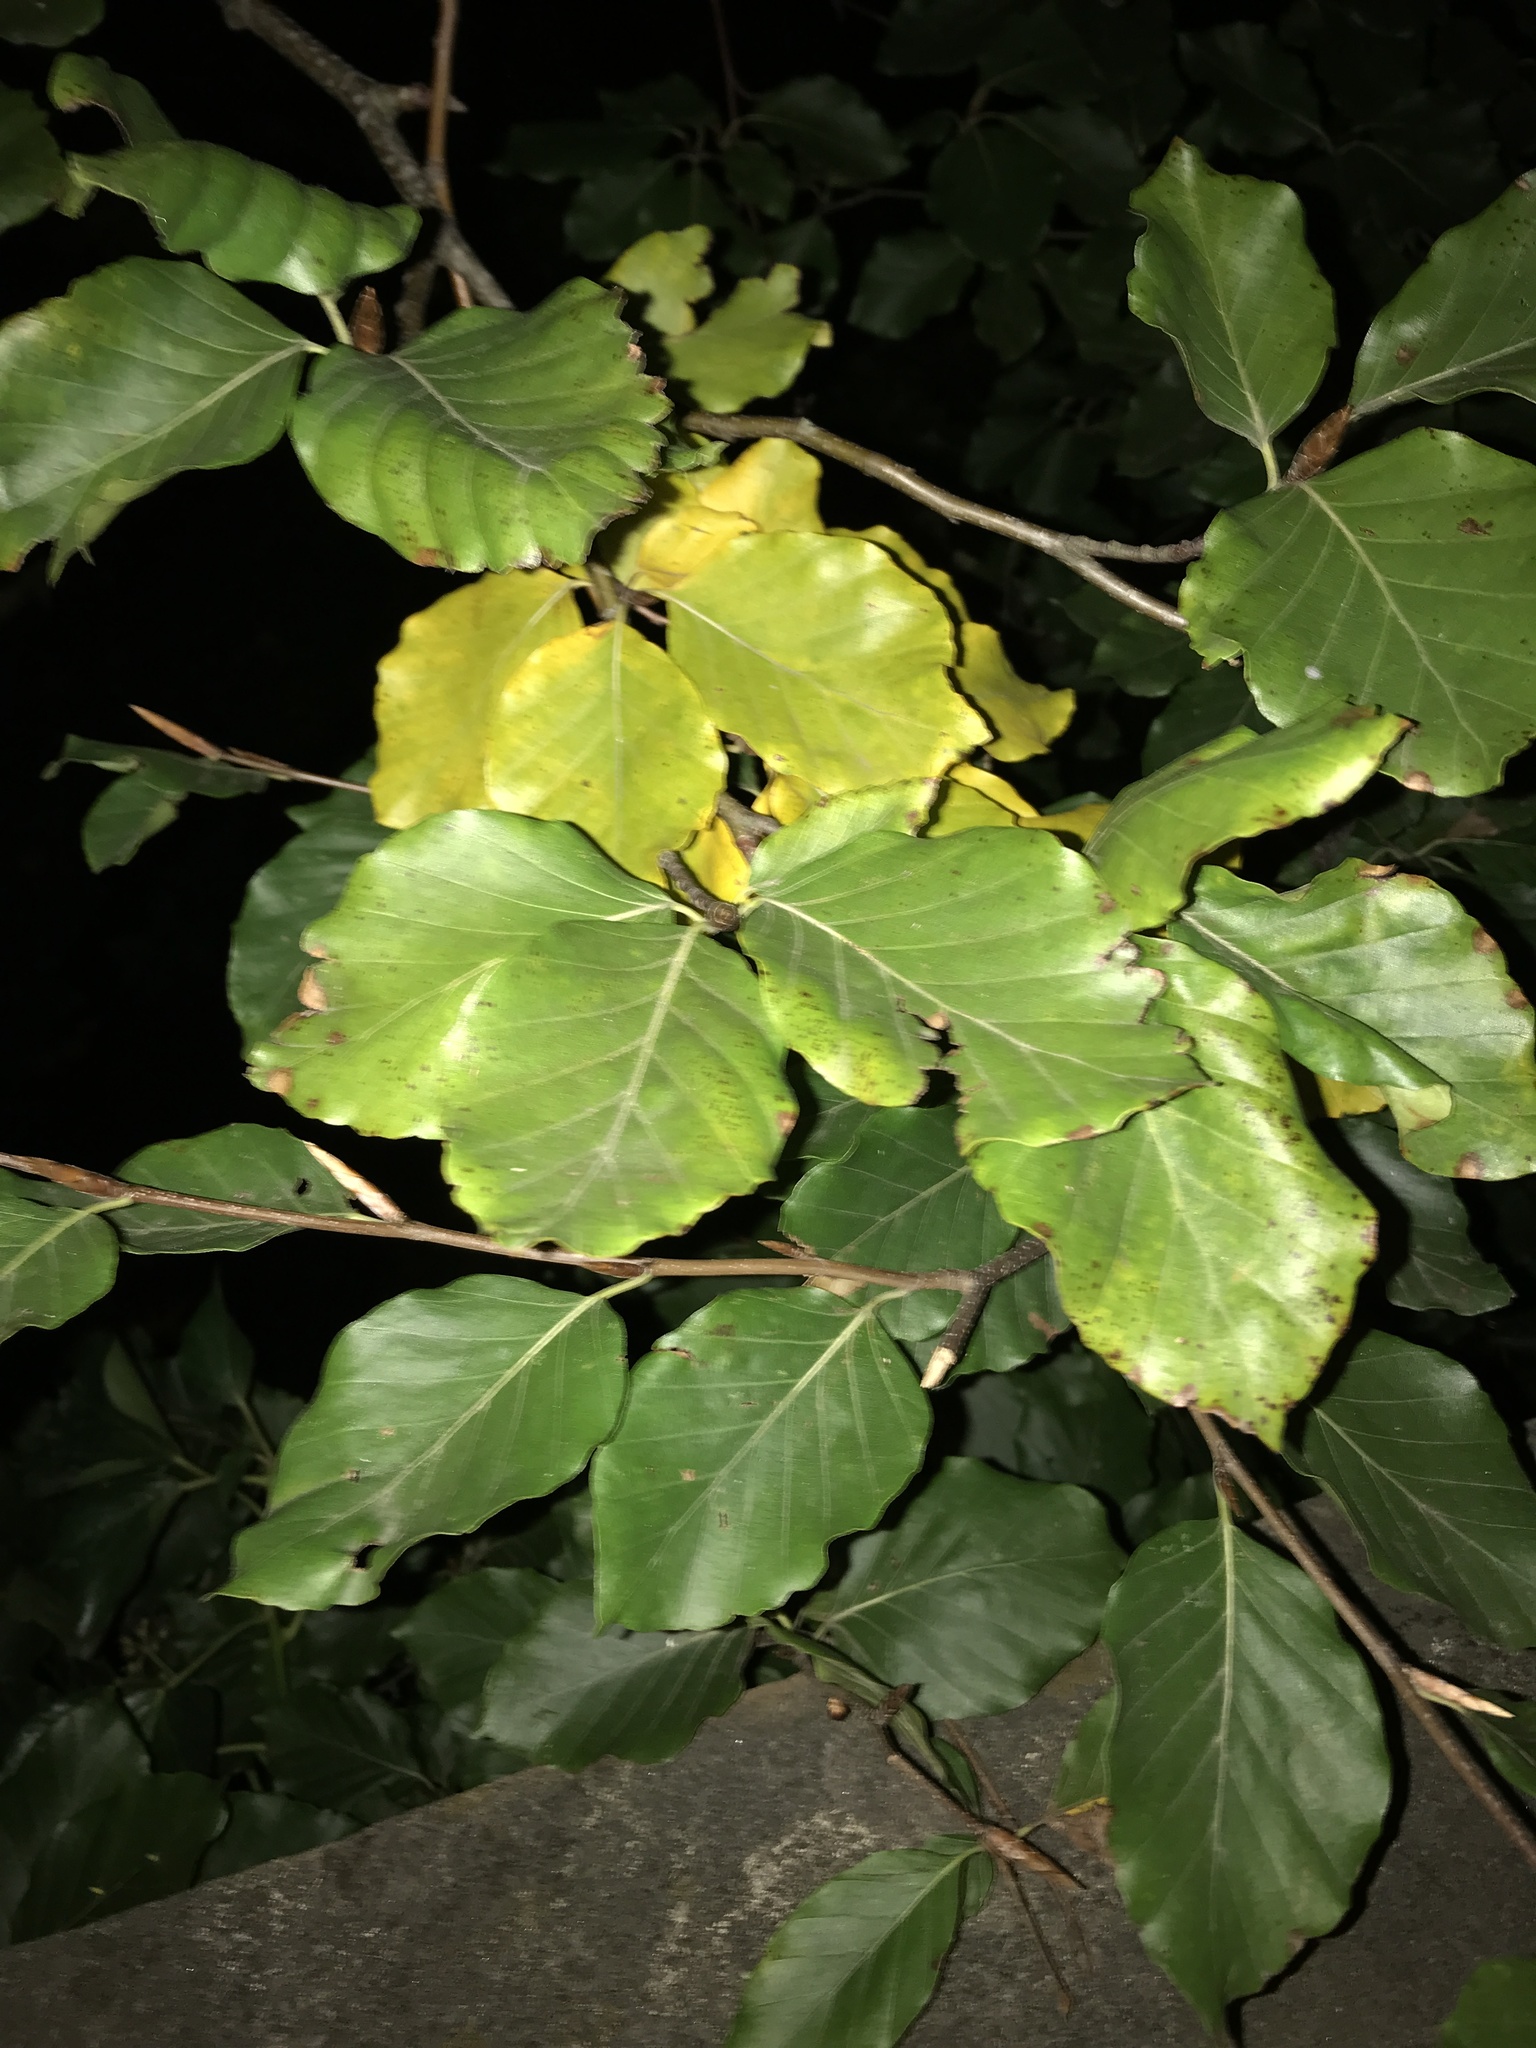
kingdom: Plantae
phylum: Tracheophyta
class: Magnoliopsida
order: Fagales
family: Fagaceae
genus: Fagus
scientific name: Fagus sylvatica
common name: Beech
